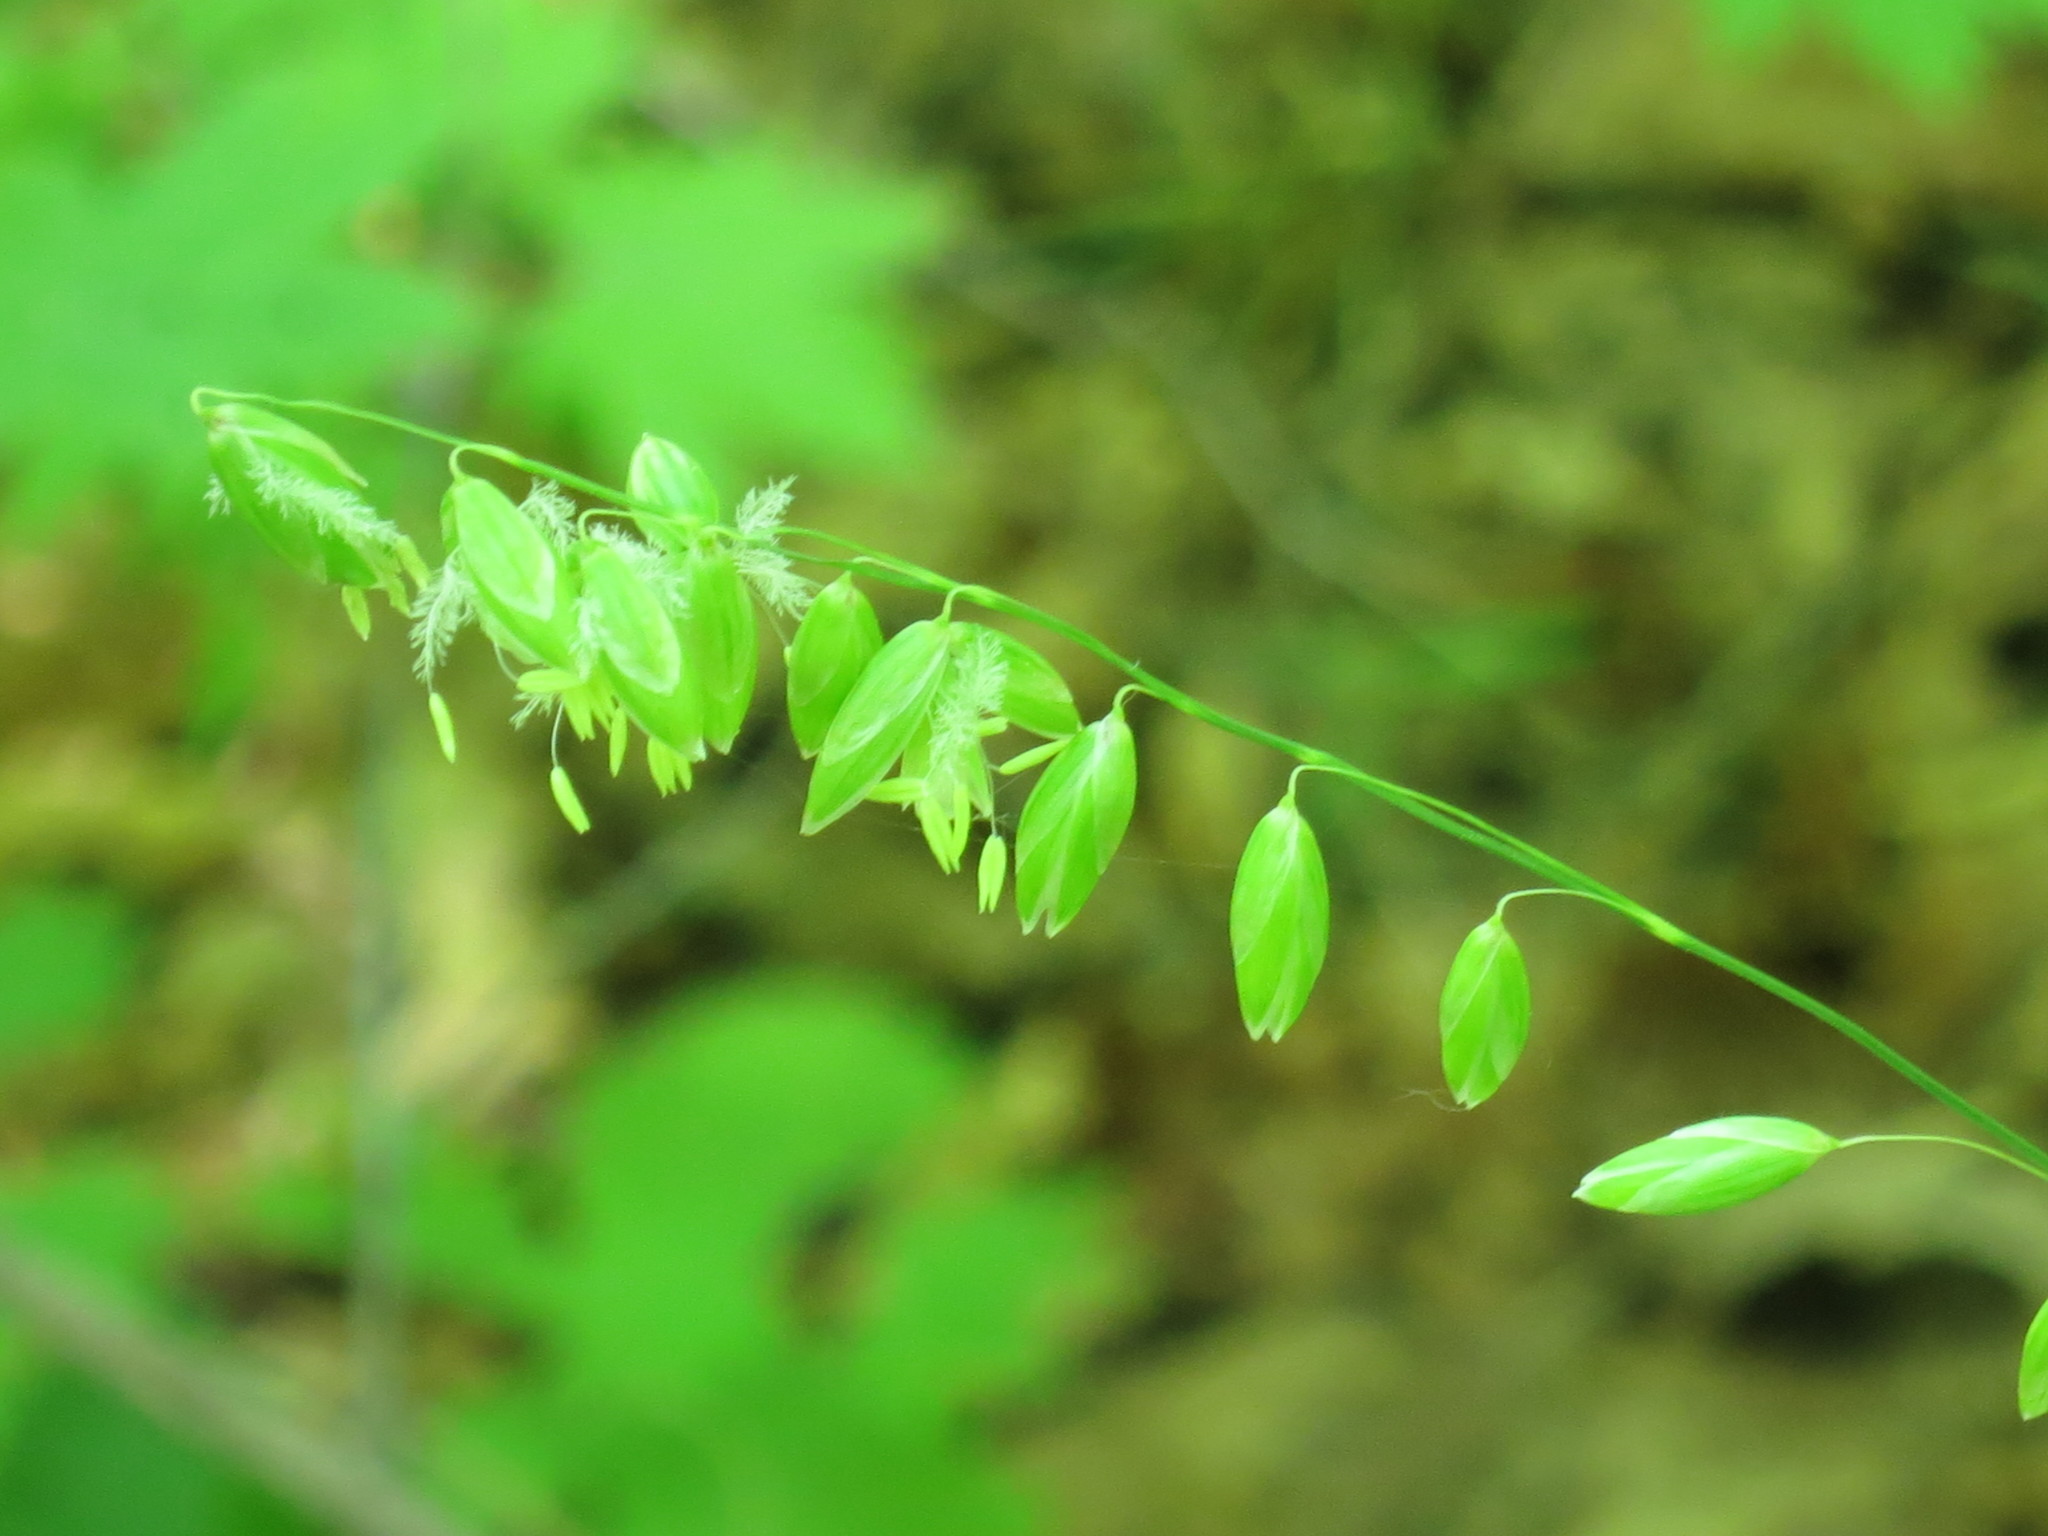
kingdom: Plantae
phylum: Tracheophyta
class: Liliopsida
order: Poales
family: Poaceae
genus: Melica
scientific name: Melica nutans
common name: Mountain melick
